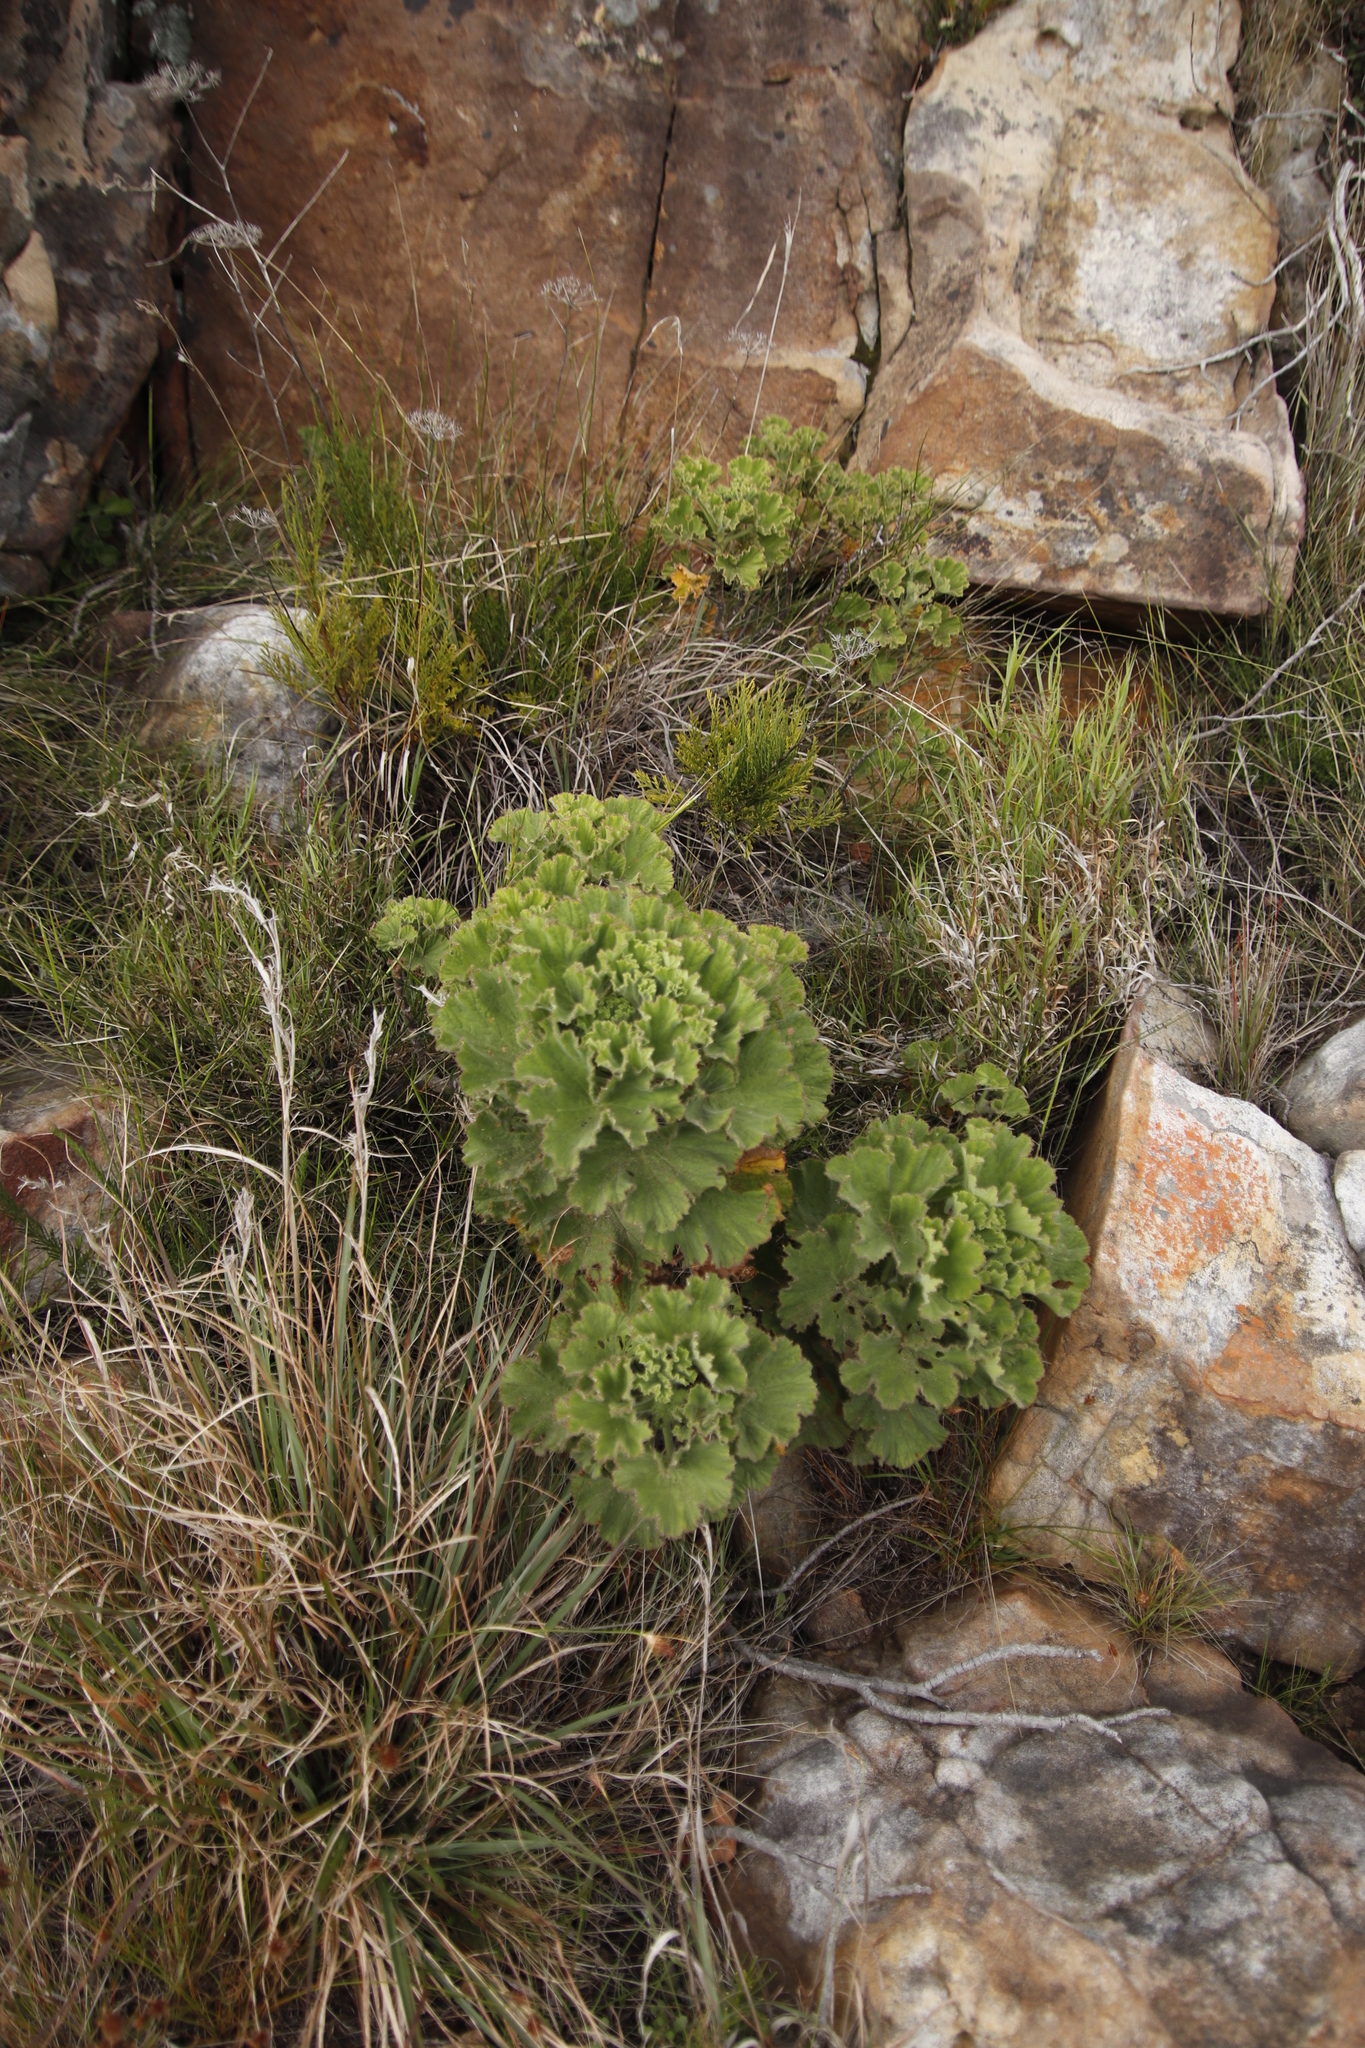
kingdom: Plantae
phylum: Tracheophyta
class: Magnoliopsida
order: Geraniales
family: Geraniaceae
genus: Pelargonium
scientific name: Pelargonium cucullatum
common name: Tree pelargonium
